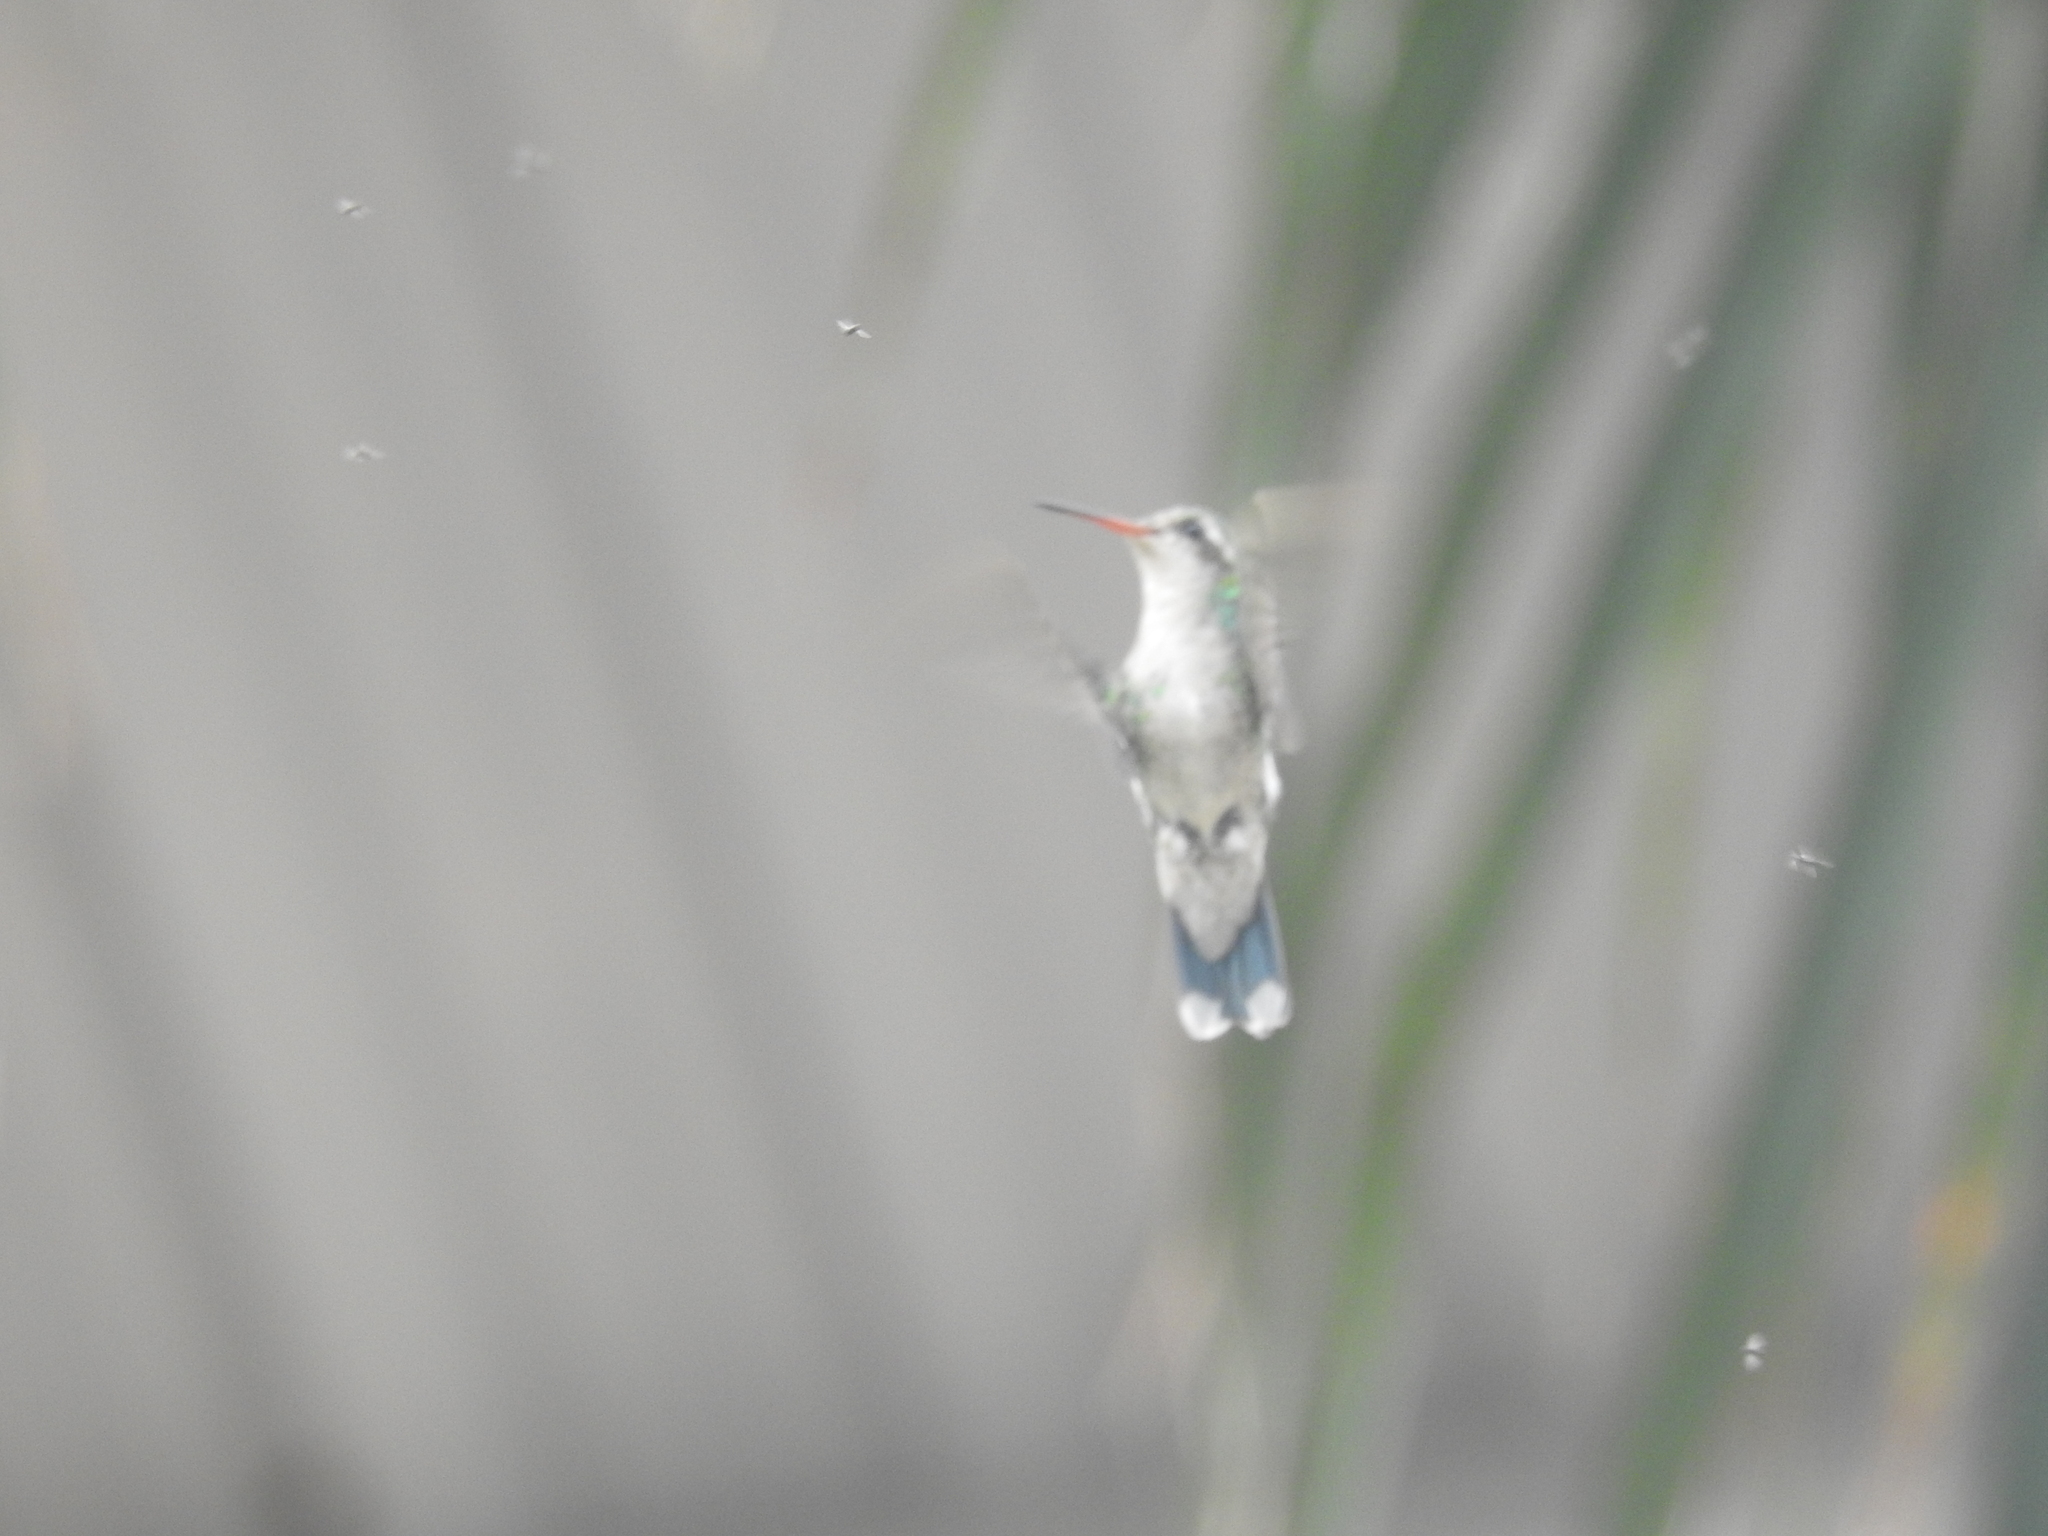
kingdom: Animalia
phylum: Chordata
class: Aves
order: Apodiformes
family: Trochilidae
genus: Chlorostilbon
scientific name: Chlorostilbon lucidus
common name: Glittering-bellied emerald
